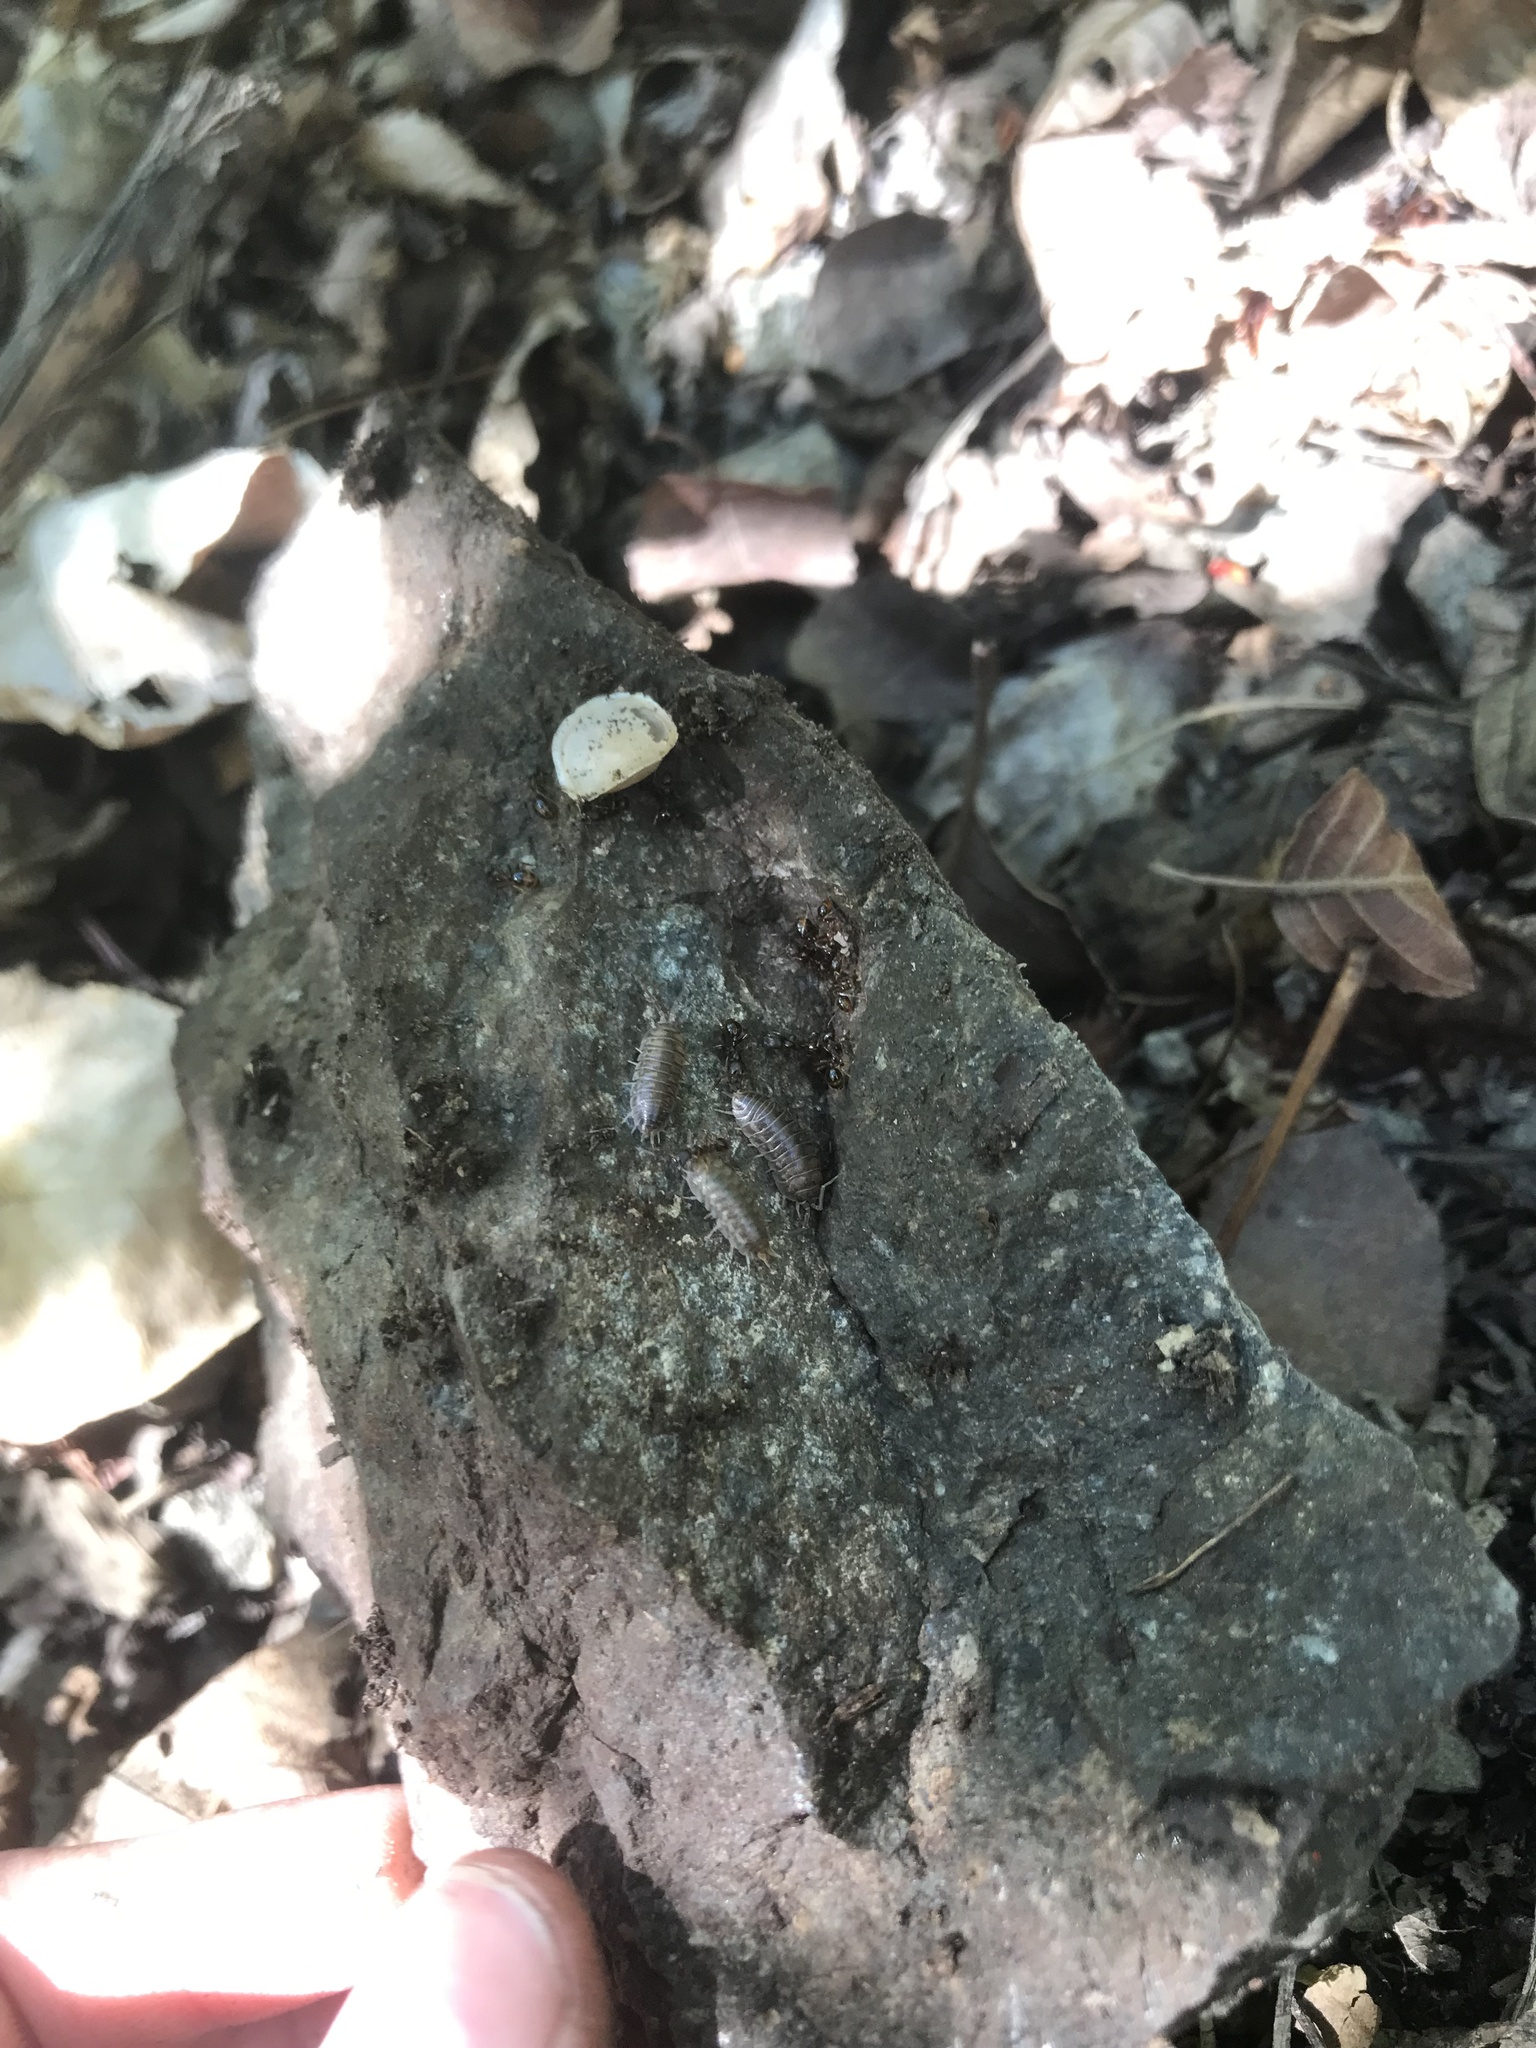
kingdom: Animalia
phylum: Arthropoda
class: Malacostraca
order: Isopoda
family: Cylisticidae
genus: Cylisticus
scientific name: Cylisticus convexus
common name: Curly woodlouse
